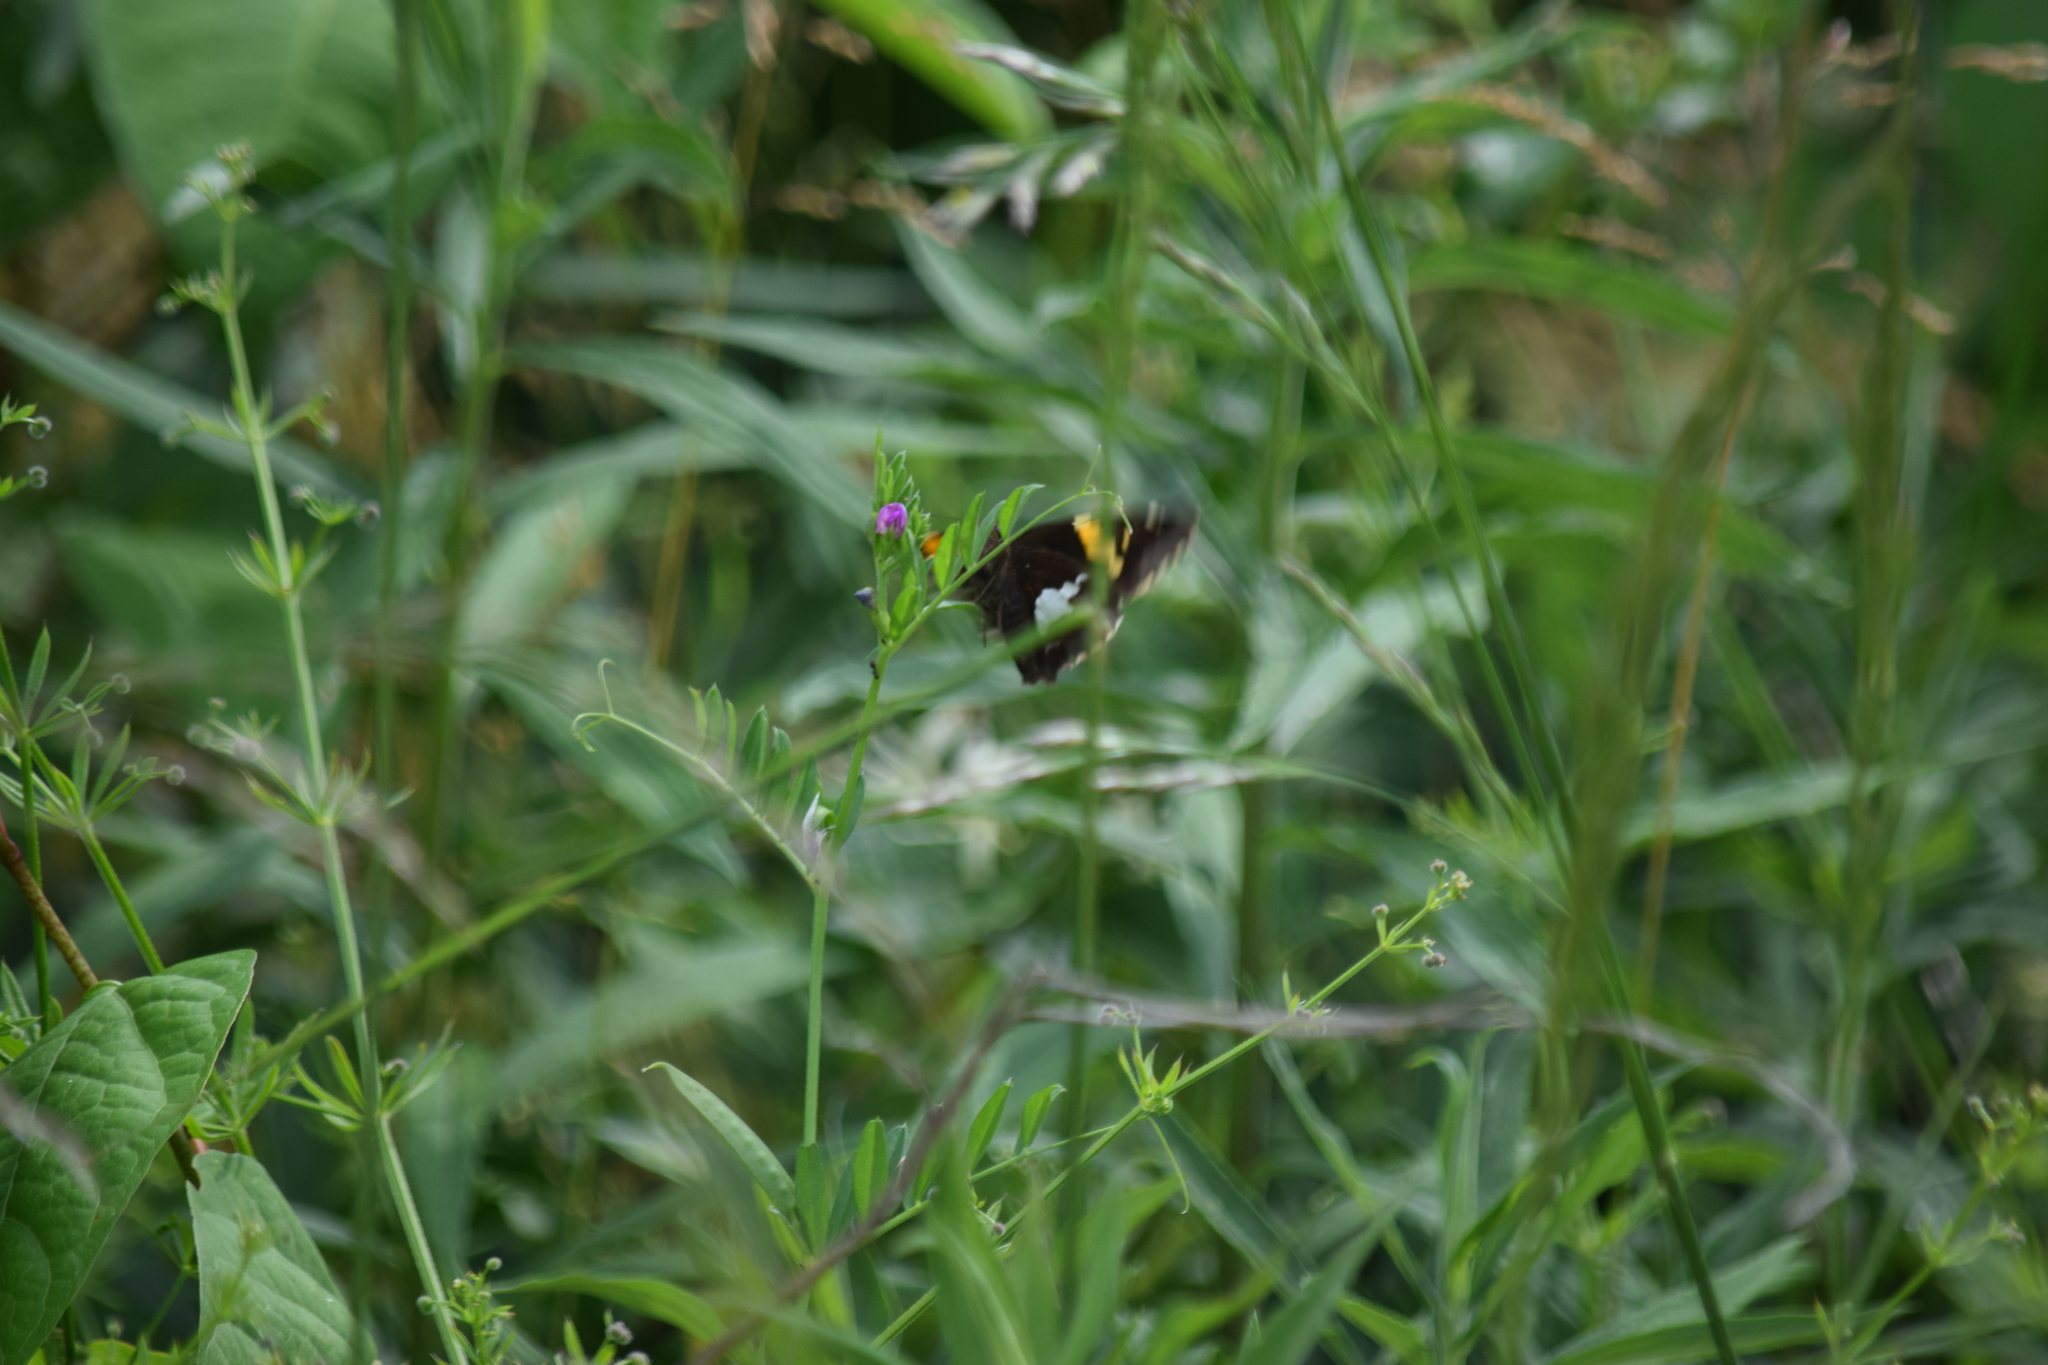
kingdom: Animalia
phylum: Arthropoda
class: Insecta
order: Lepidoptera
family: Hesperiidae
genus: Epargyreus
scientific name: Epargyreus clarus
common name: Silver-spotted skipper
